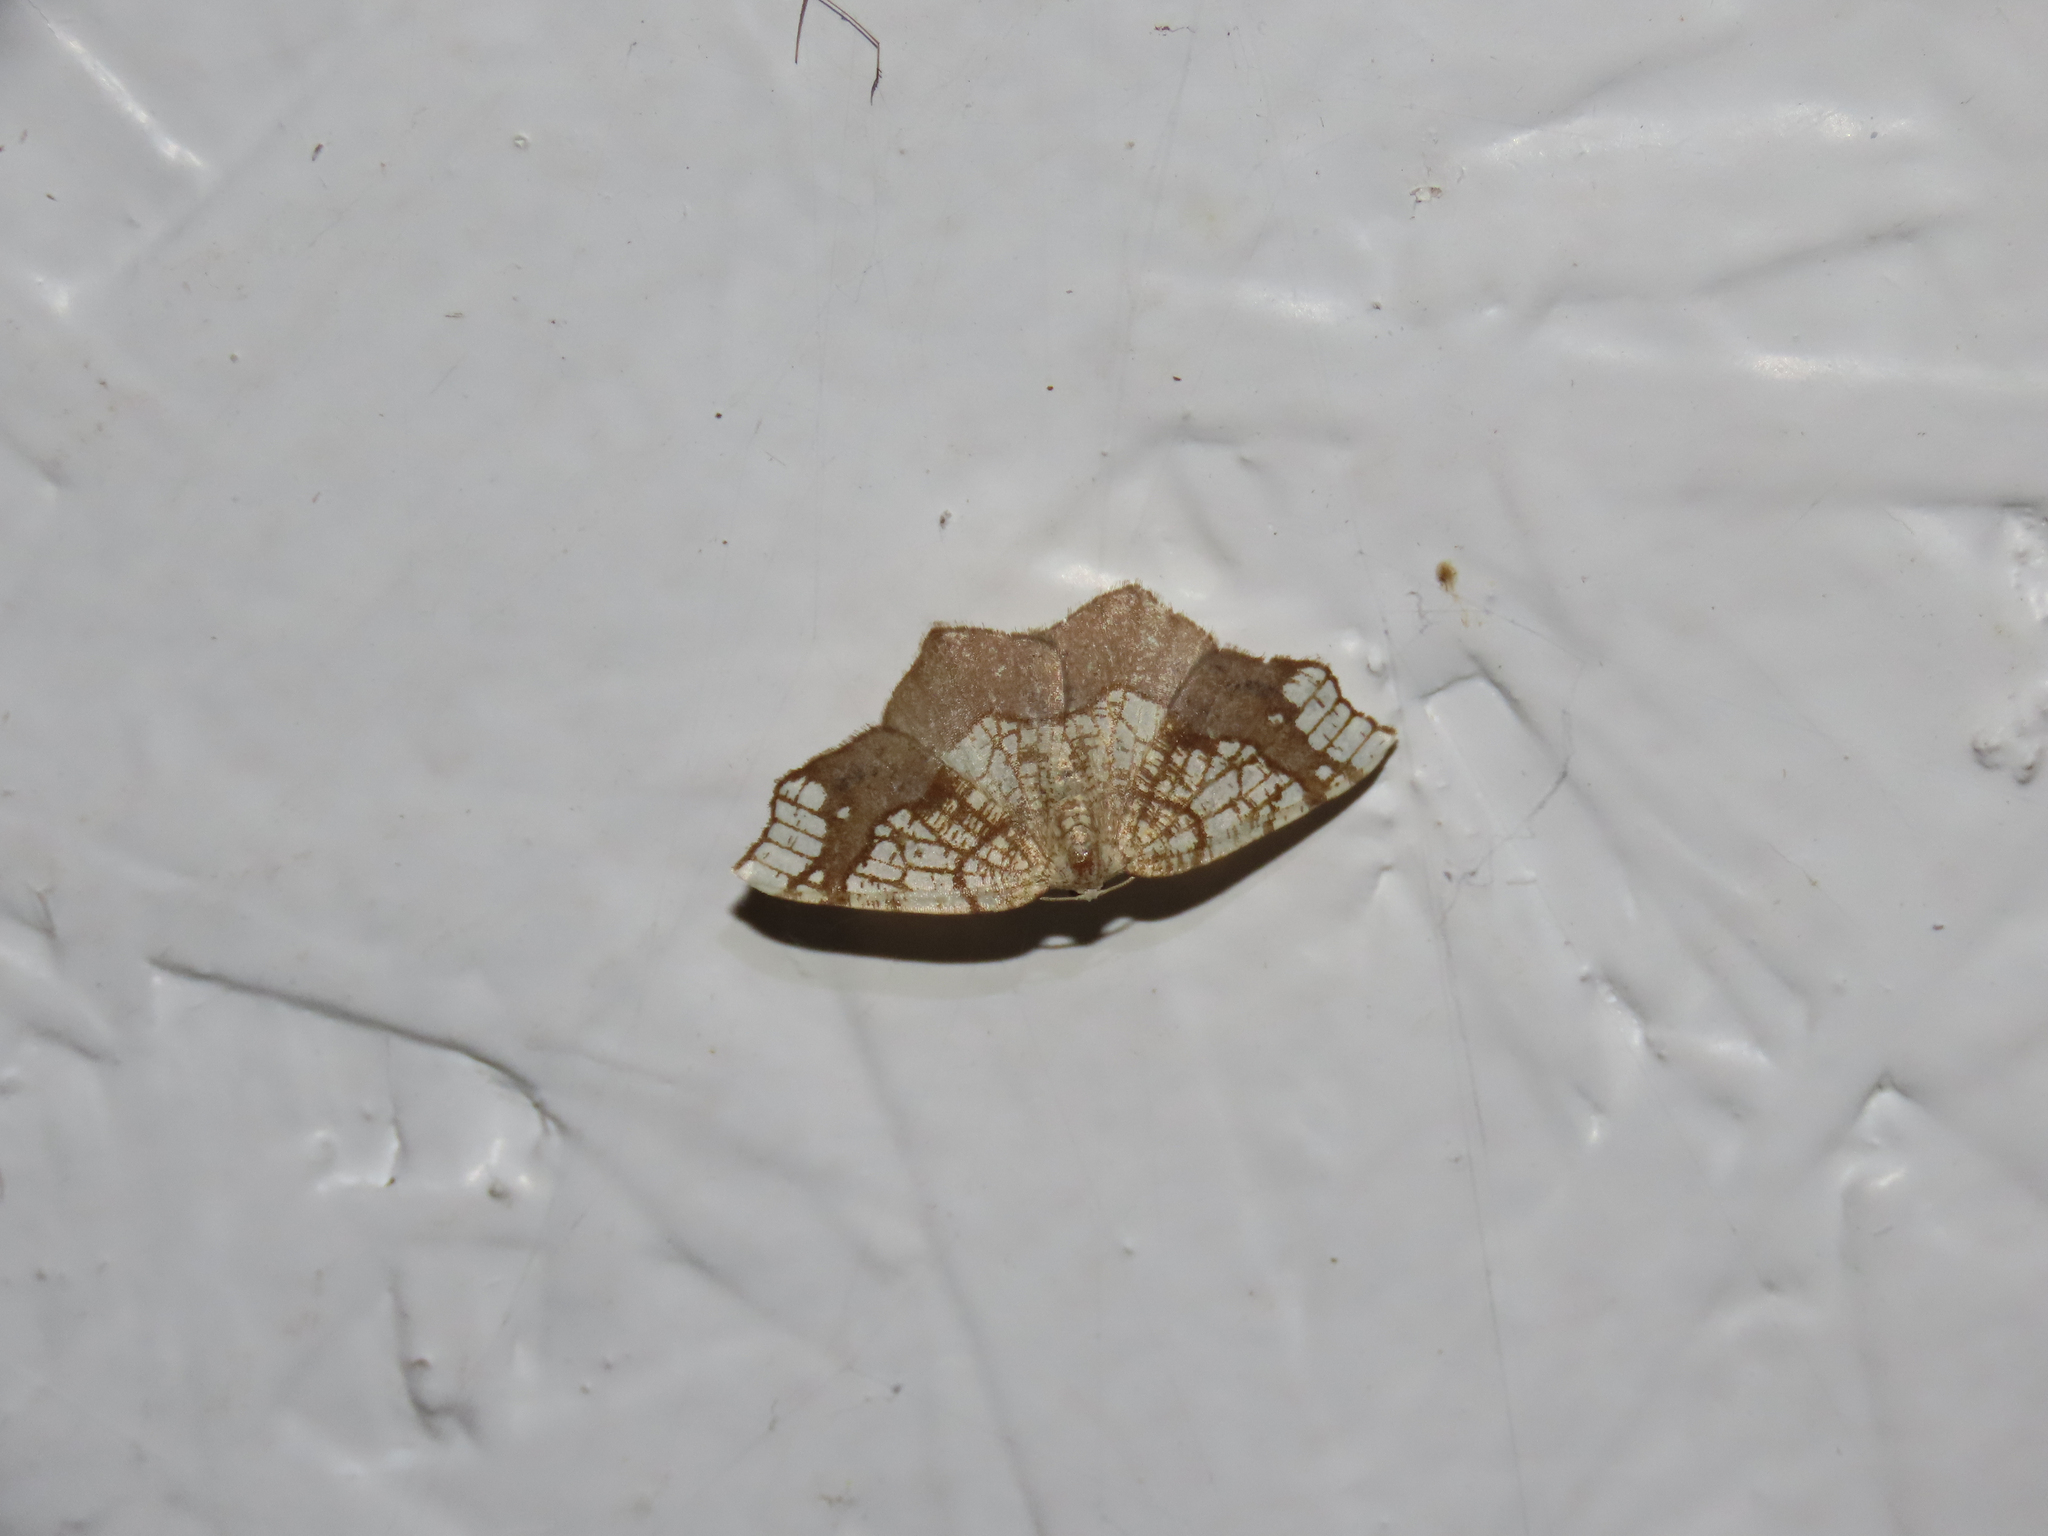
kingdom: Animalia
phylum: Arthropoda
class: Insecta
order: Lepidoptera
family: Geometridae
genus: Nematocampa
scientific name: Nematocampa resistaria
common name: Horned spanworm moth
